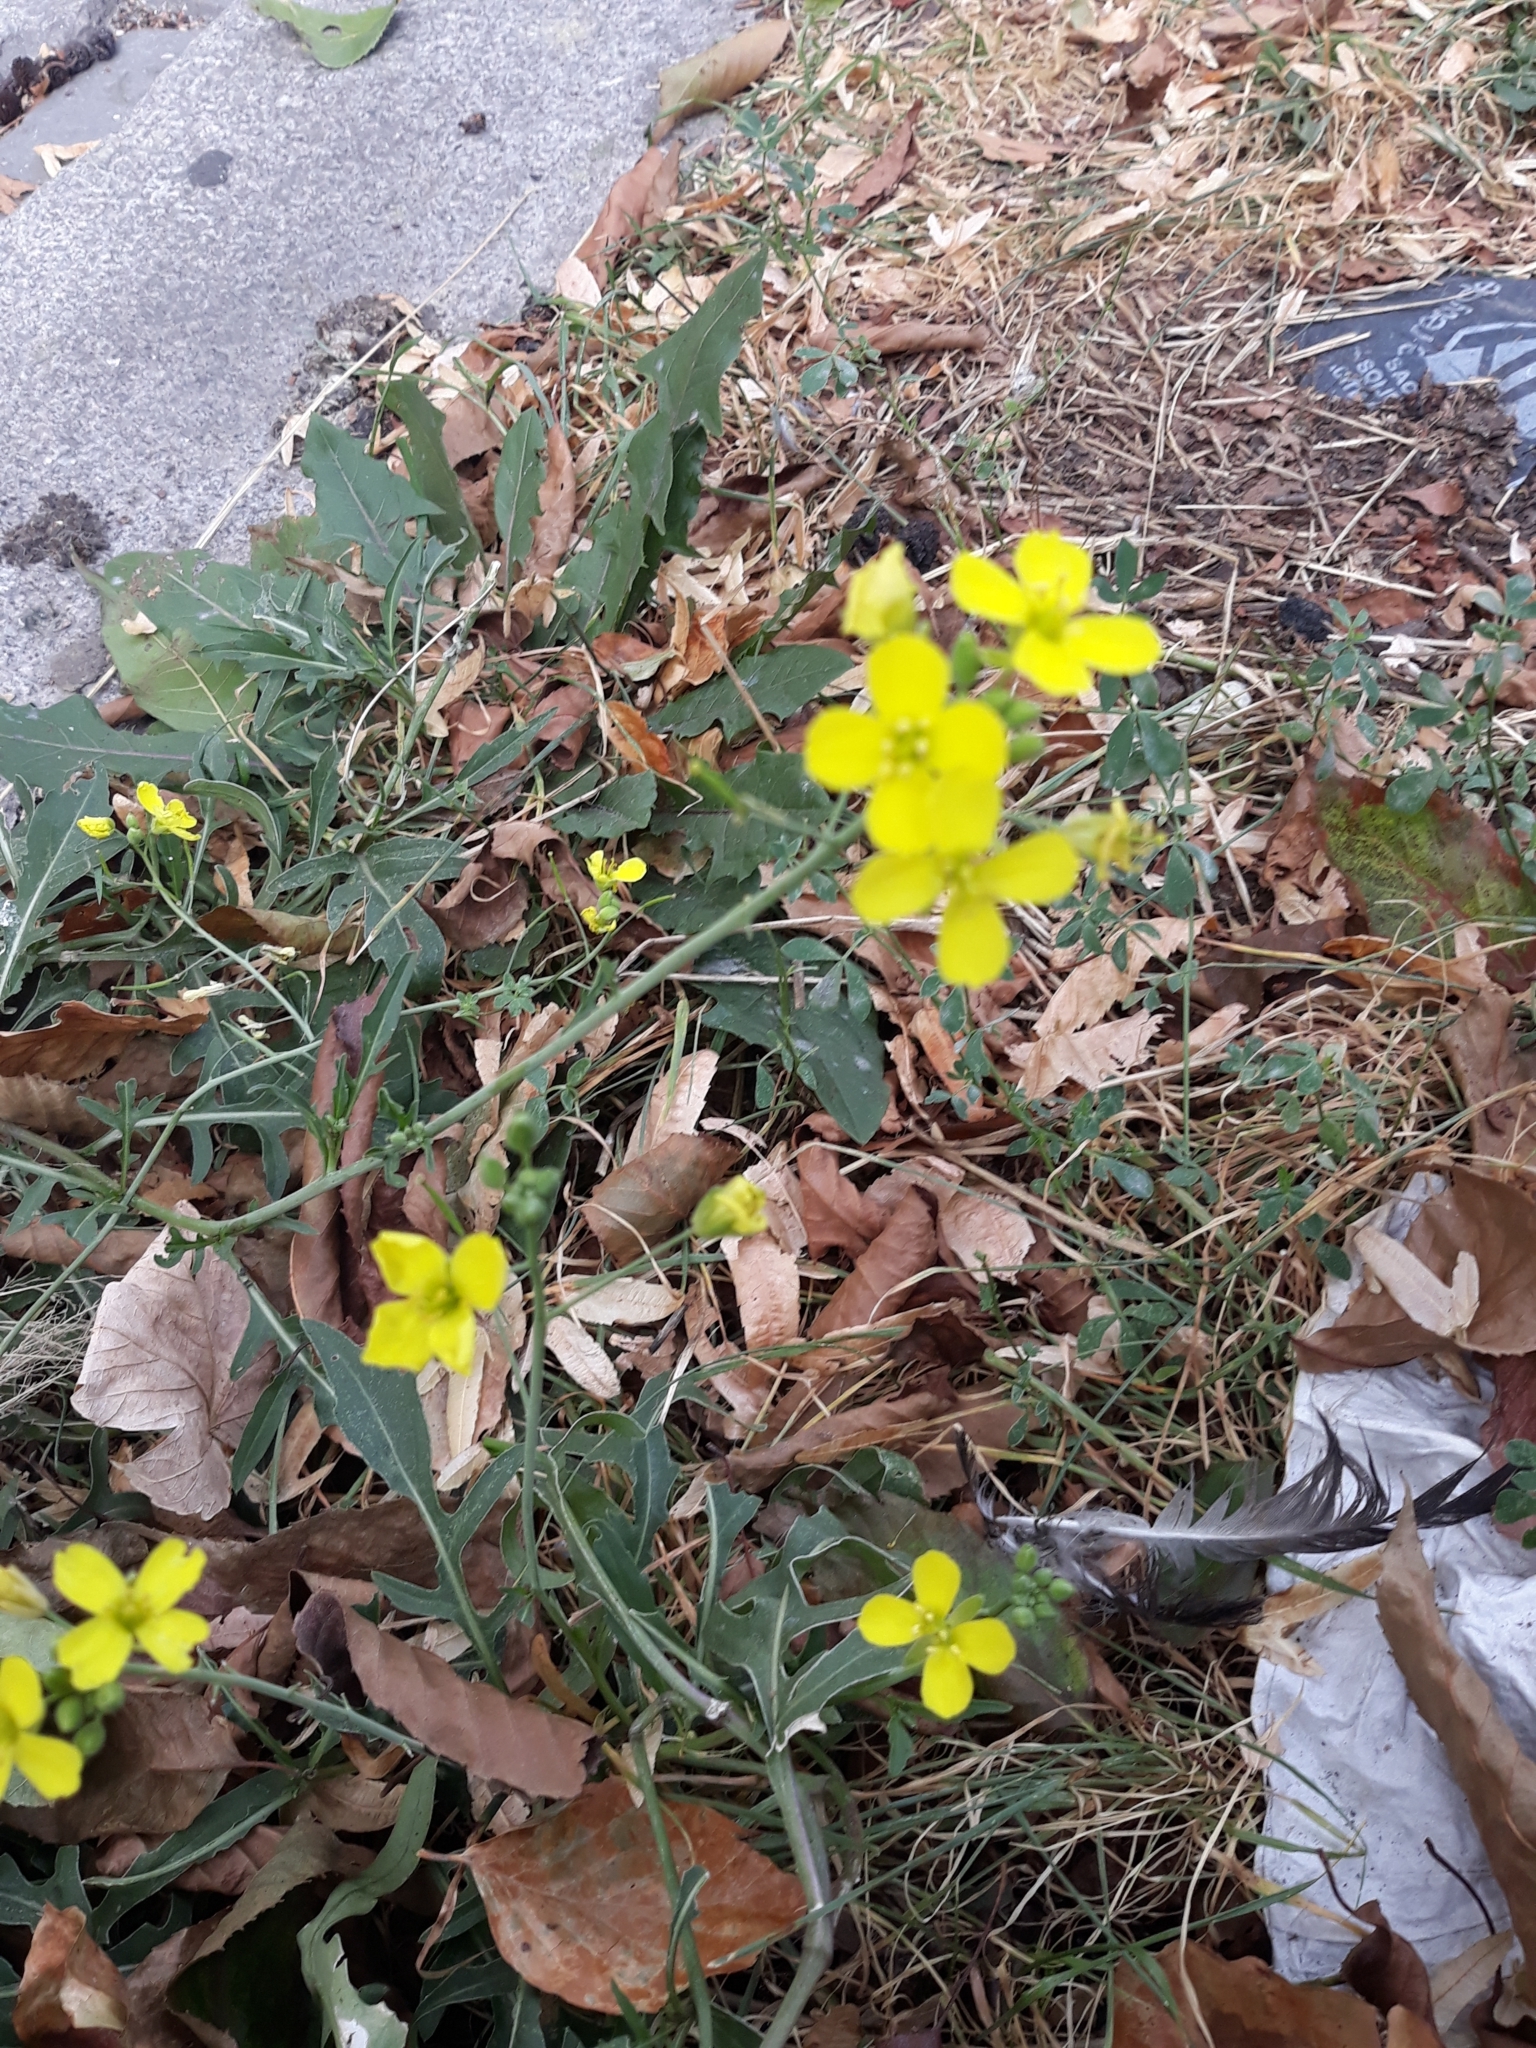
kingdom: Plantae
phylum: Tracheophyta
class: Magnoliopsida
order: Brassicales
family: Brassicaceae
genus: Diplotaxis
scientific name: Diplotaxis tenuifolia
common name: Perennial wall-rocket
